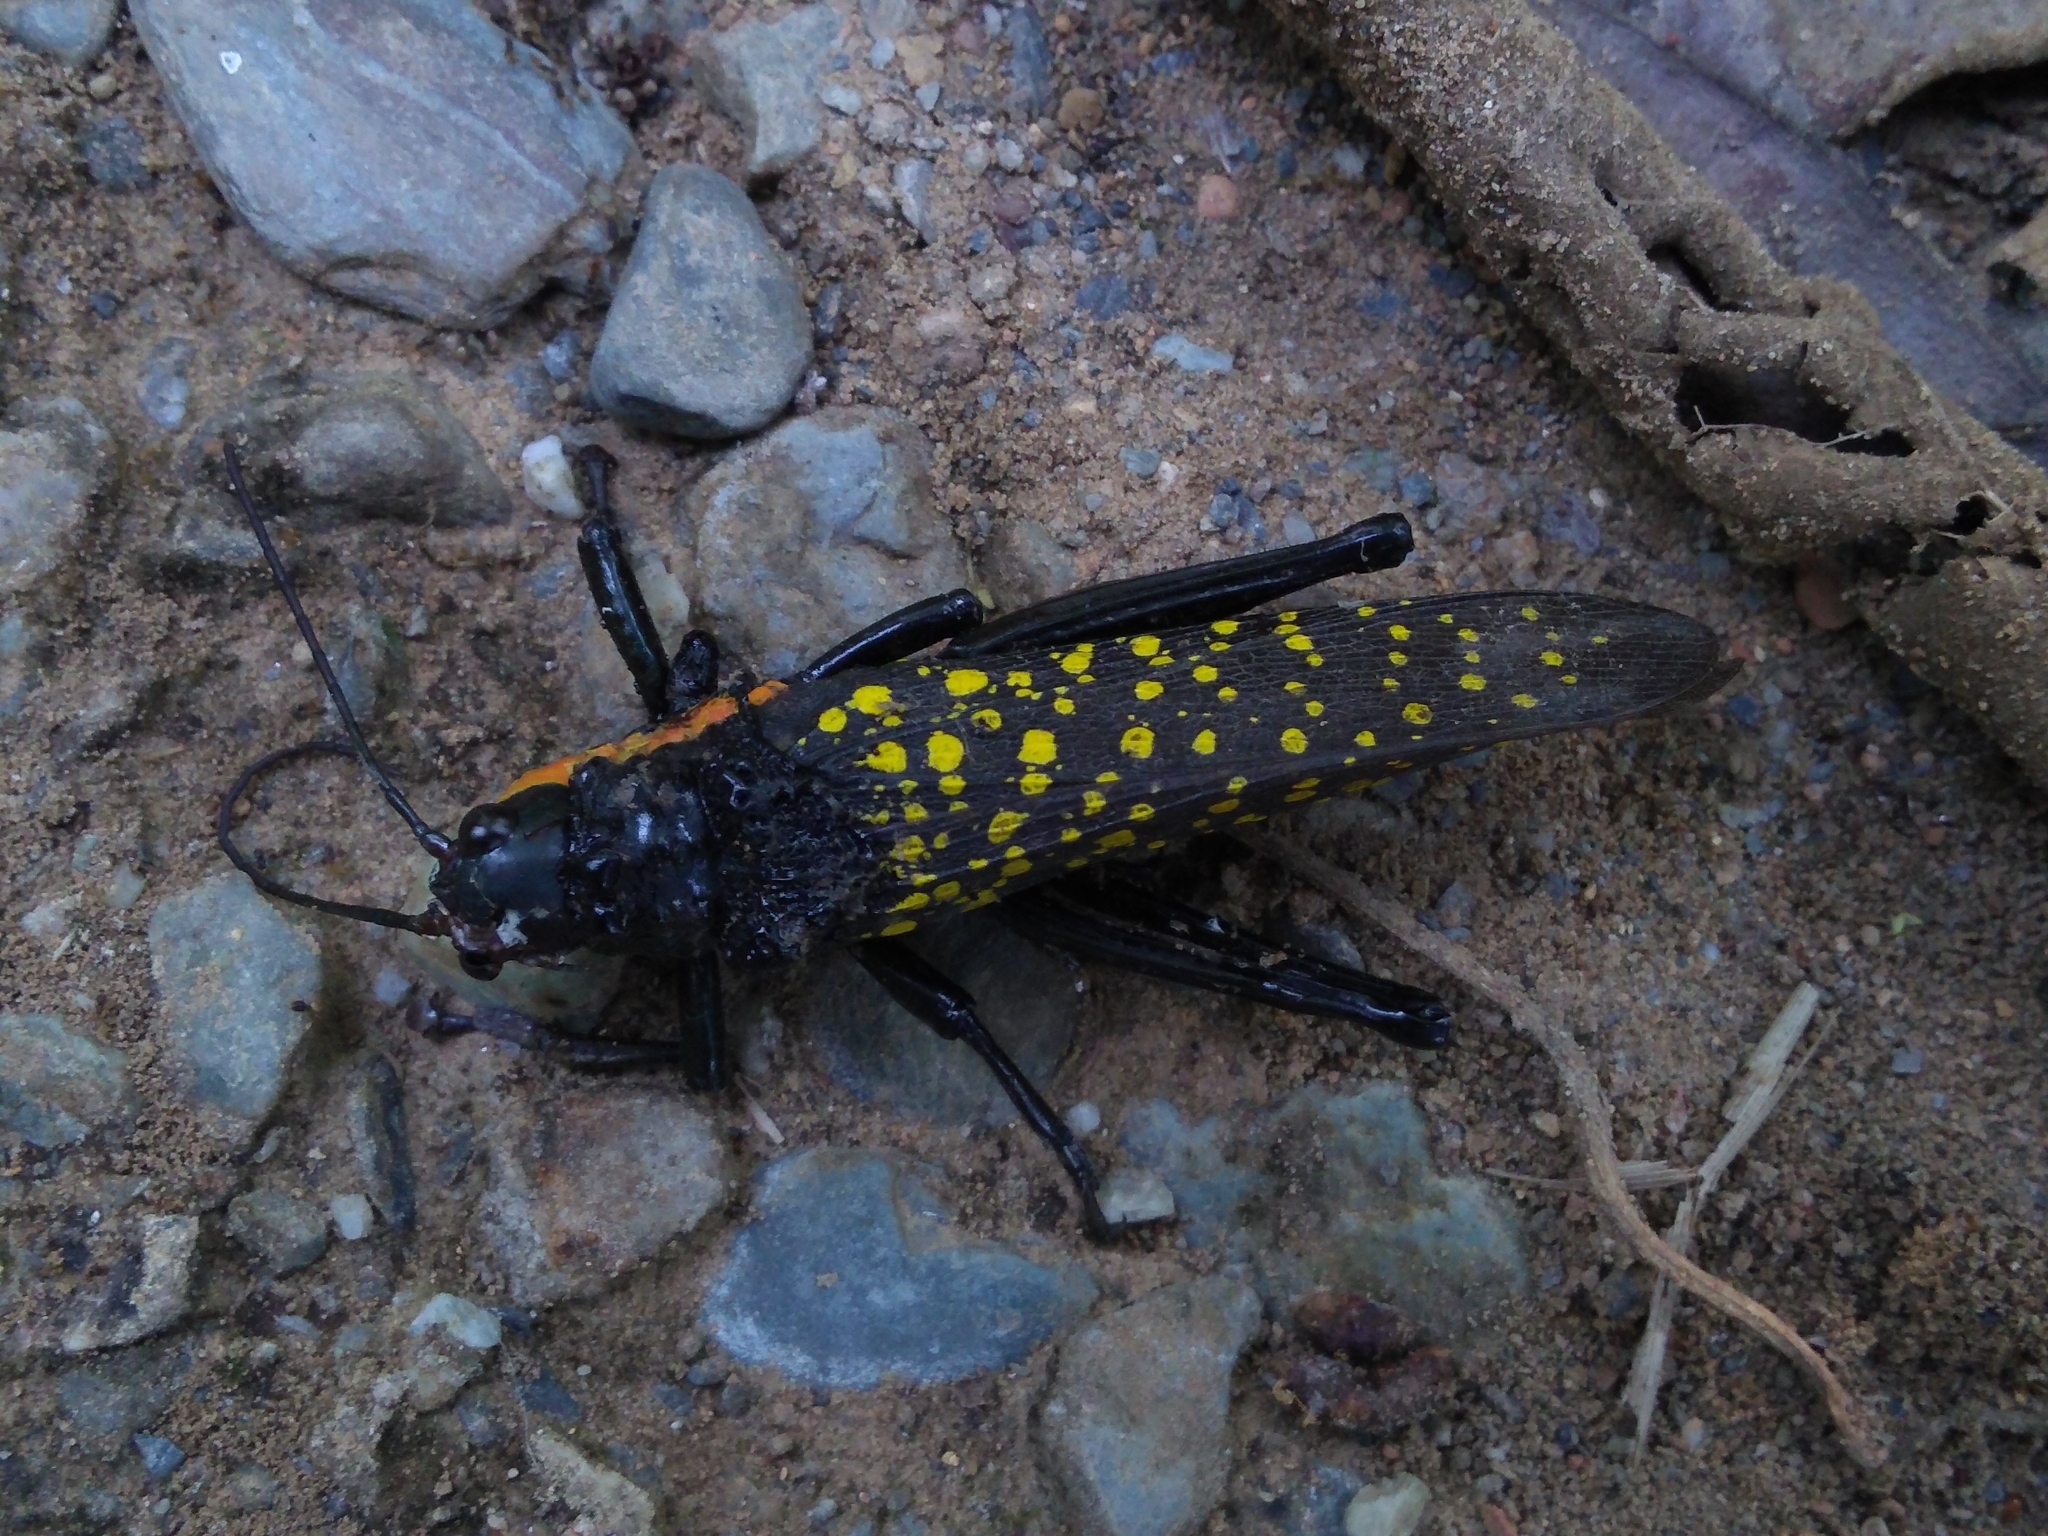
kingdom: Animalia
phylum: Arthropoda
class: Insecta
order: Orthoptera
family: Pyrgomorphidae
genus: Poekilocerus
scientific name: Poekilocerus pictus
